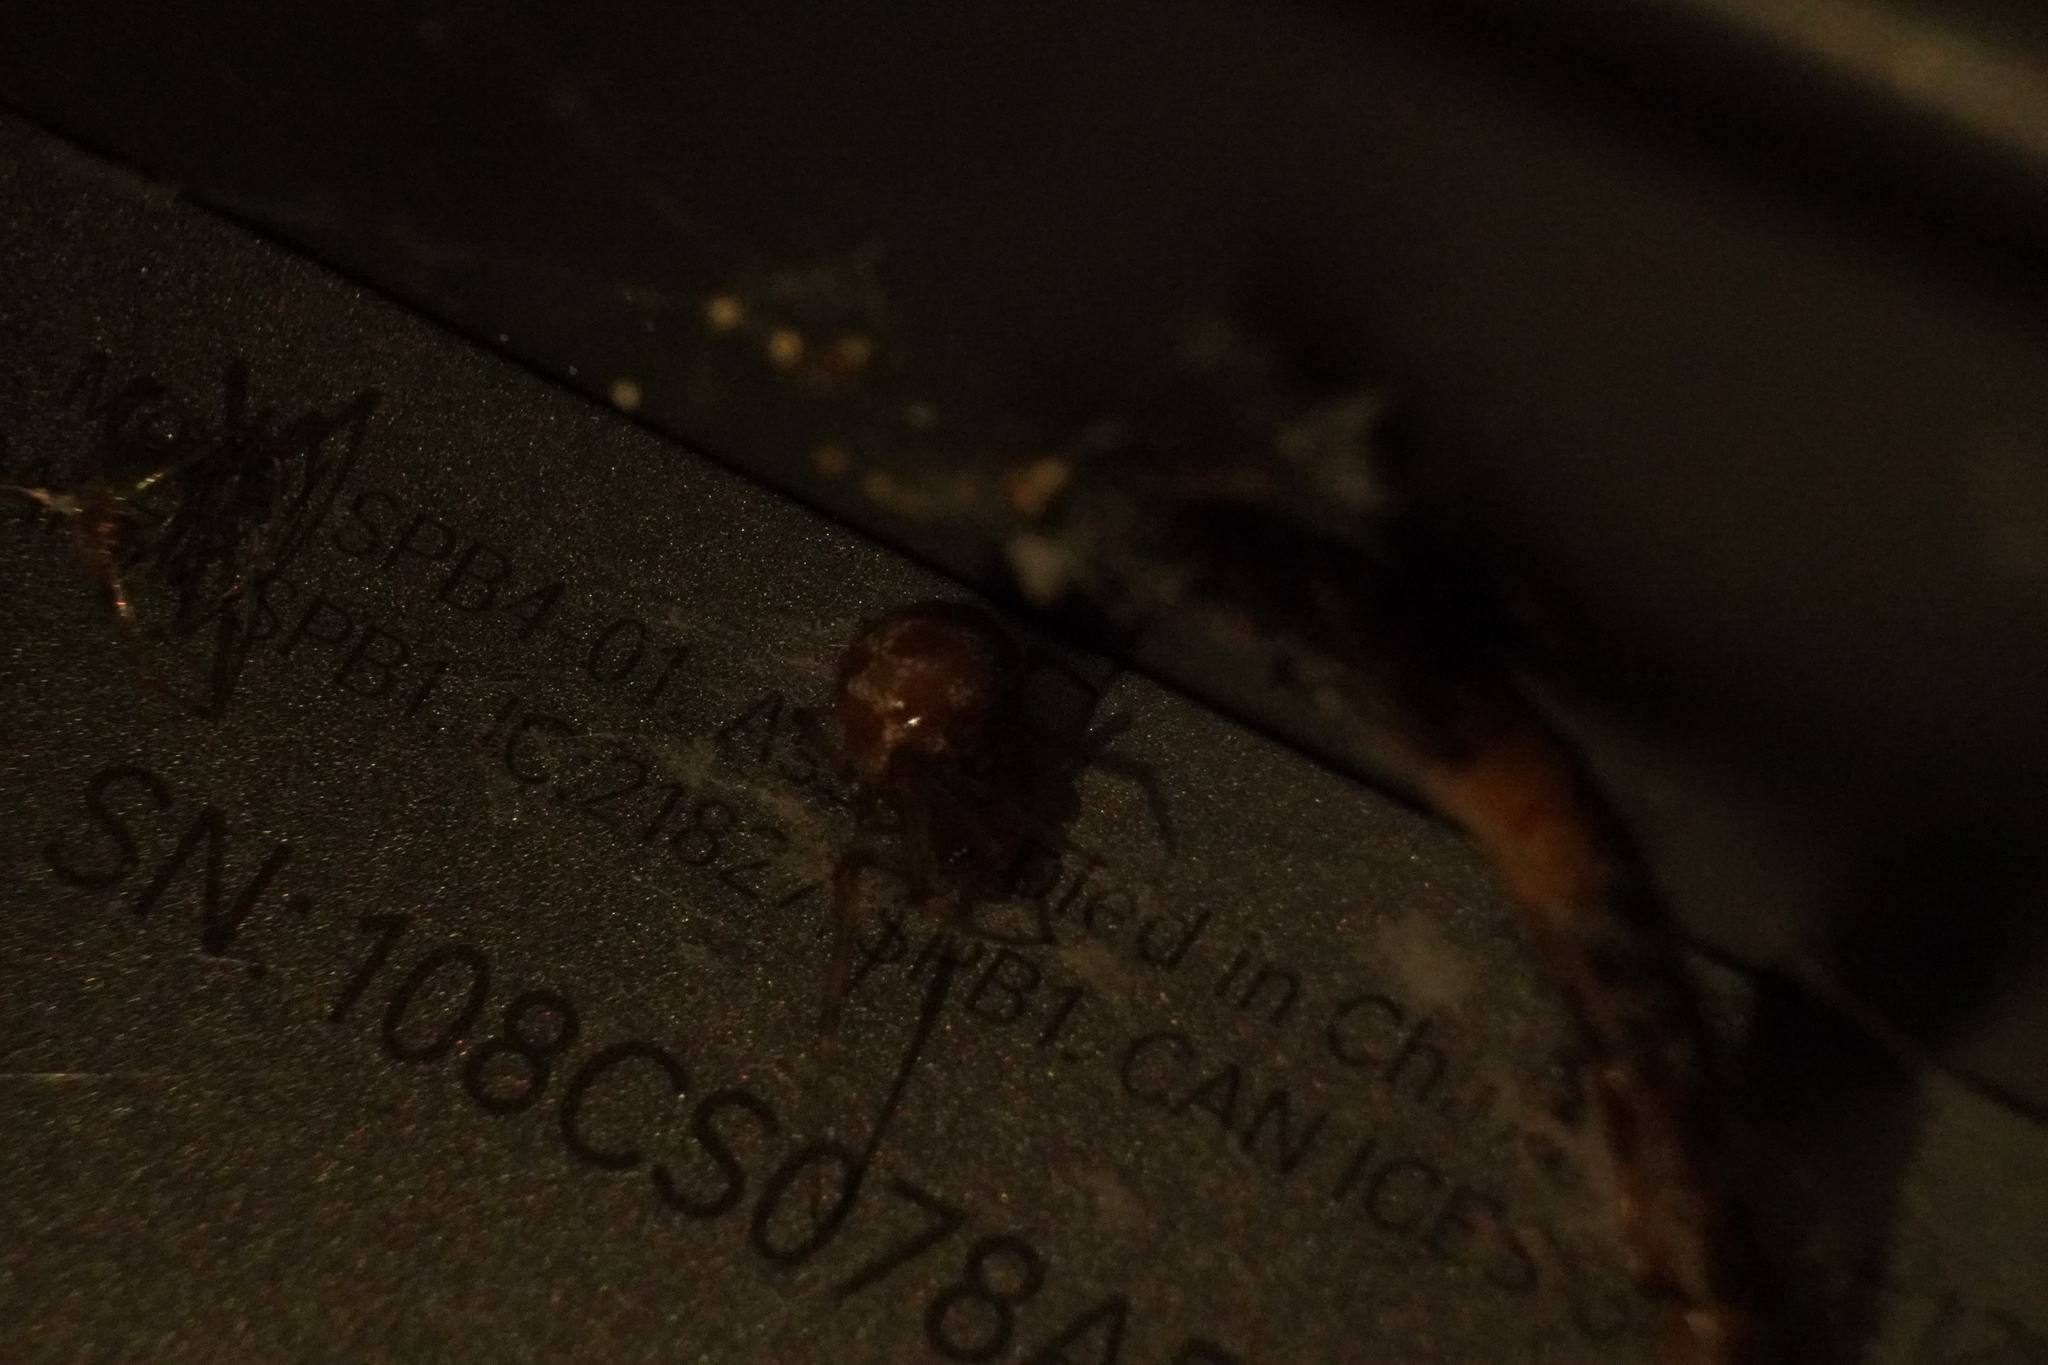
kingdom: Animalia
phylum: Arthropoda
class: Arachnida
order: Araneae
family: Theridiidae
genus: Steatoda
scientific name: Steatoda triangulosa
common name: Triangulate bud spider
